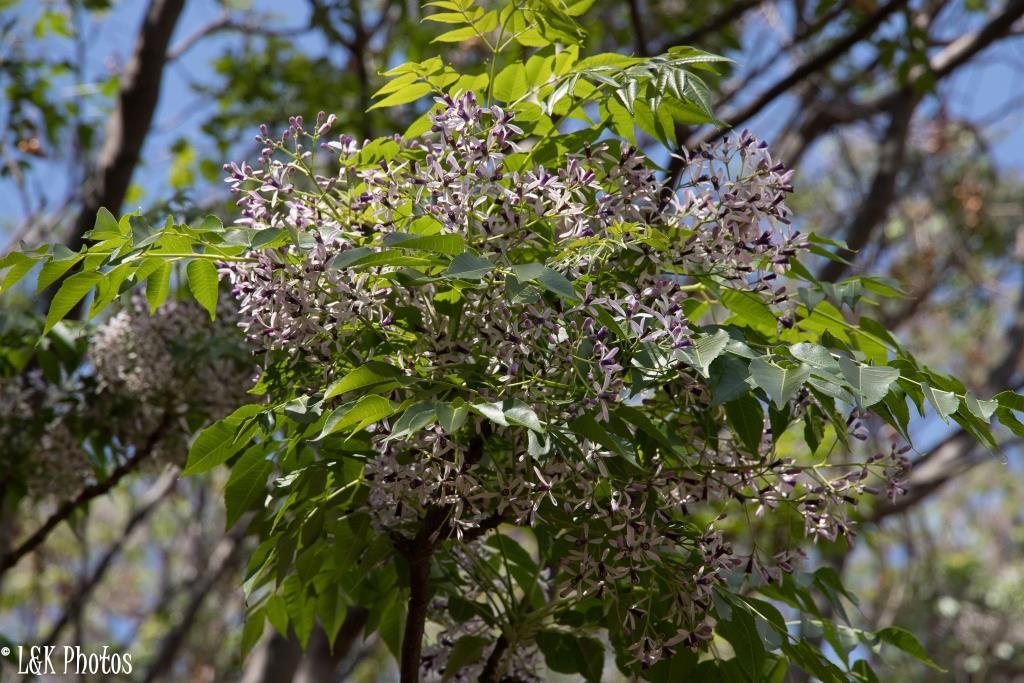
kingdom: Plantae
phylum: Tracheophyta
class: Magnoliopsida
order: Sapindales
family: Meliaceae
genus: Melia
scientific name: Melia azedarach
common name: Chinaberrytree
